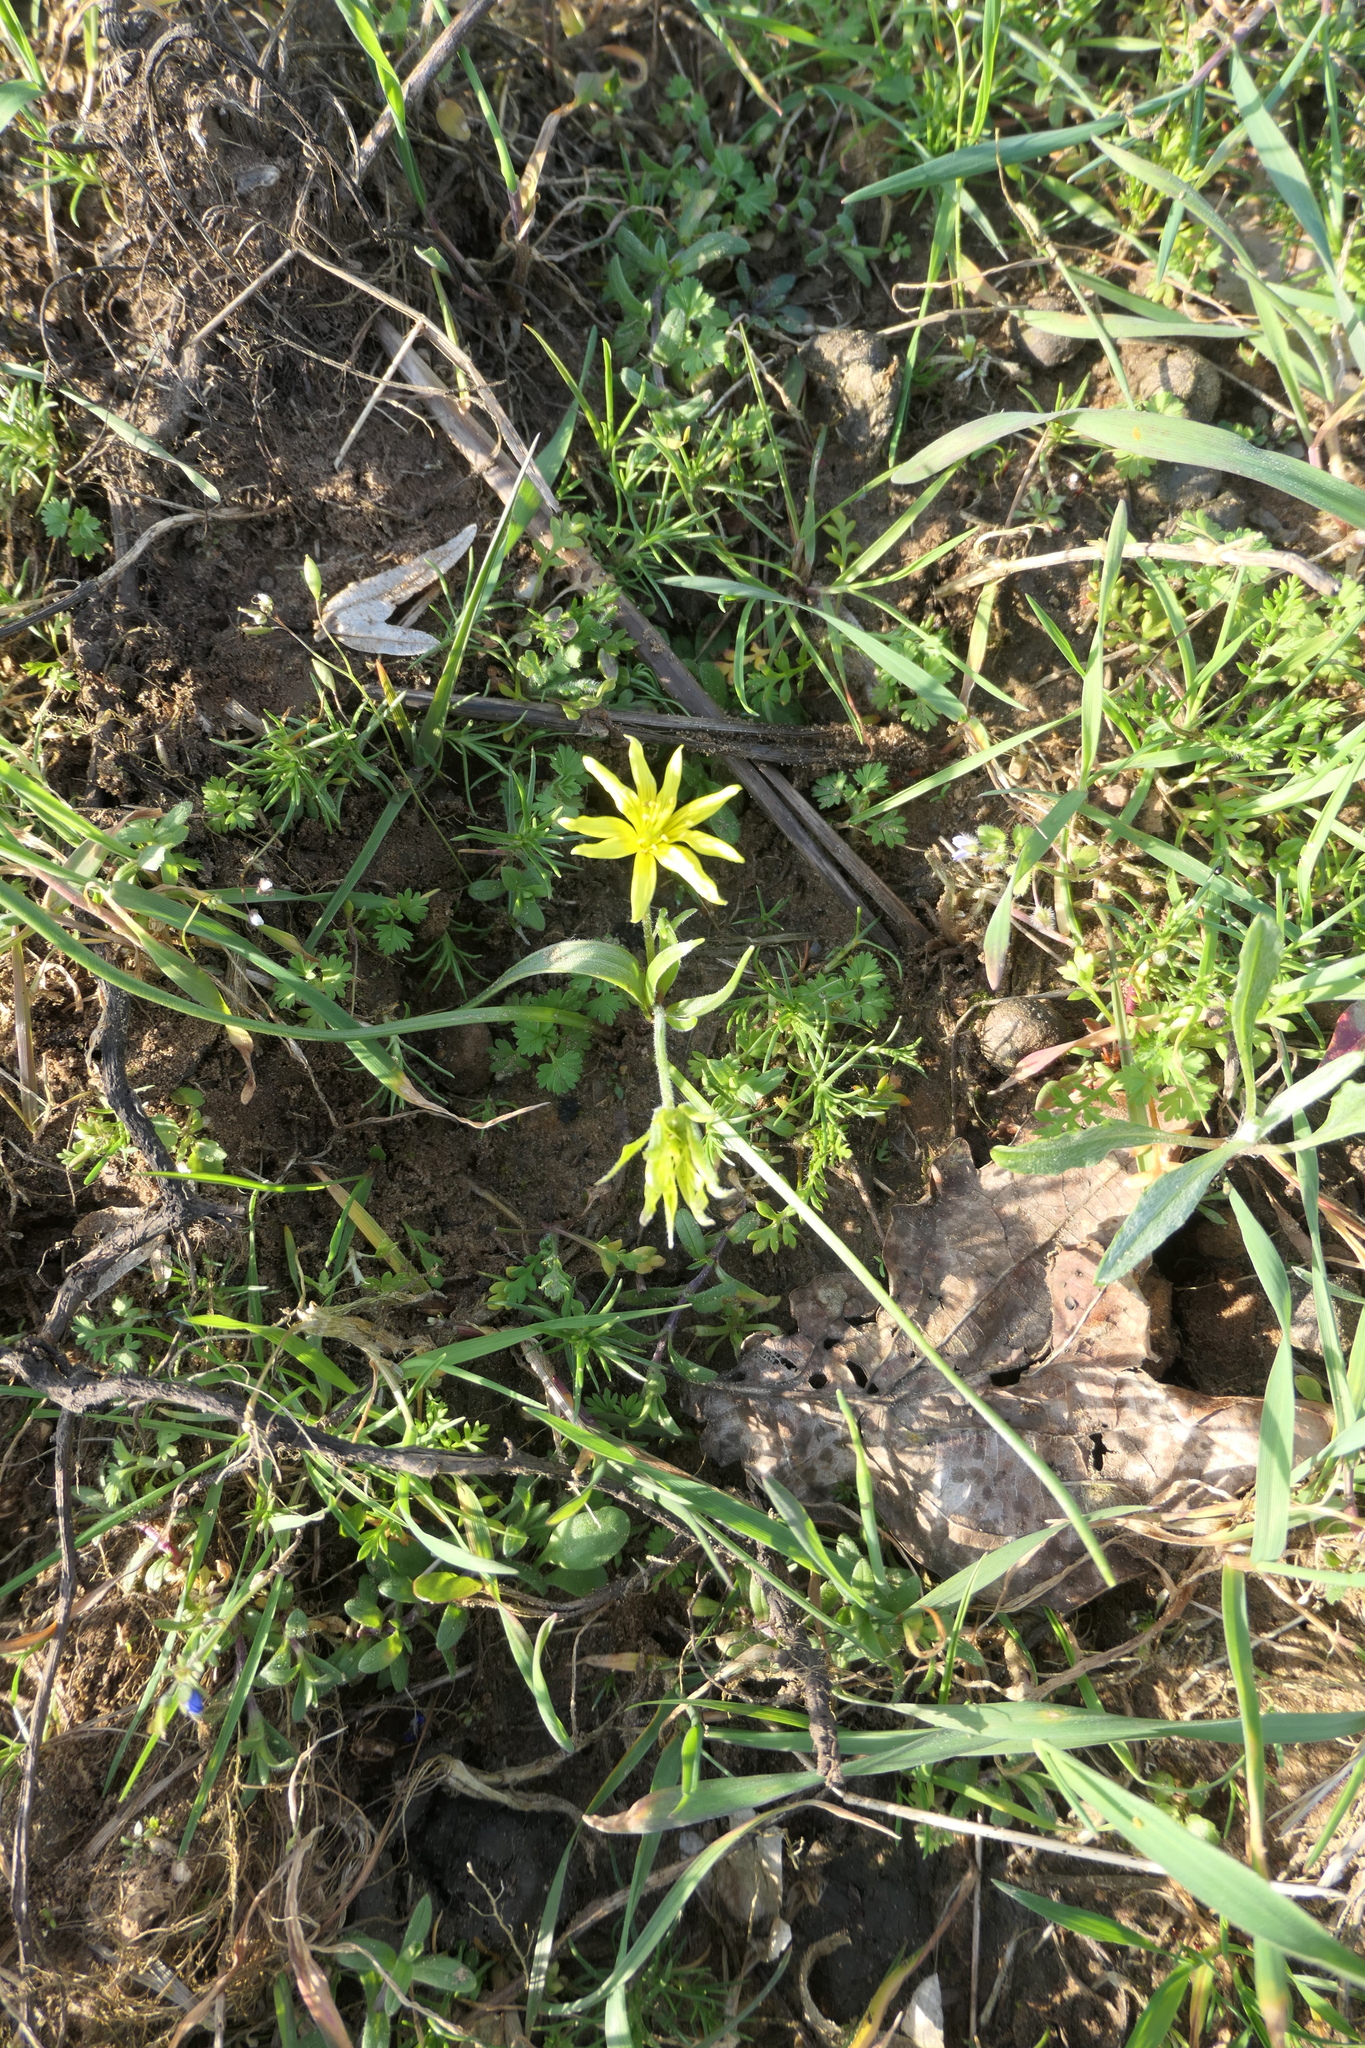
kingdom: Plantae
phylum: Tracheophyta
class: Liliopsida
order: Liliales
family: Liliaceae
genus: Gagea
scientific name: Gagea villosa
